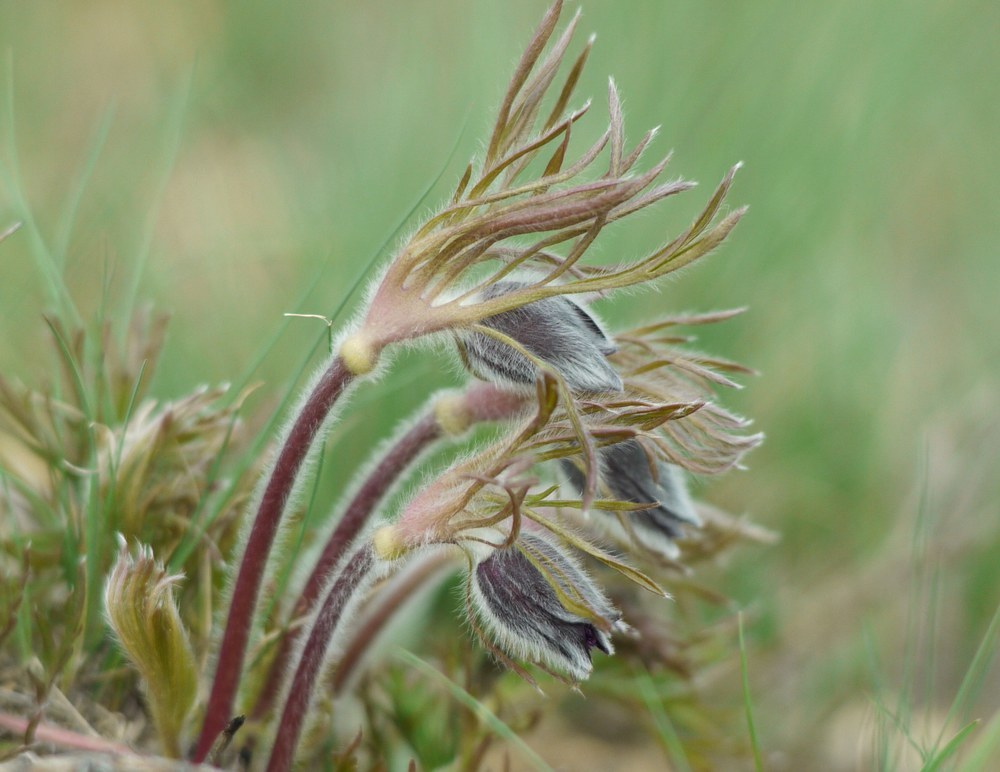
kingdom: Plantae
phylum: Tracheophyta
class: Magnoliopsida
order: Ranunculales
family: Ranunculaceae
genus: Pulsatilla
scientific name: Pulsatilla pratensis
